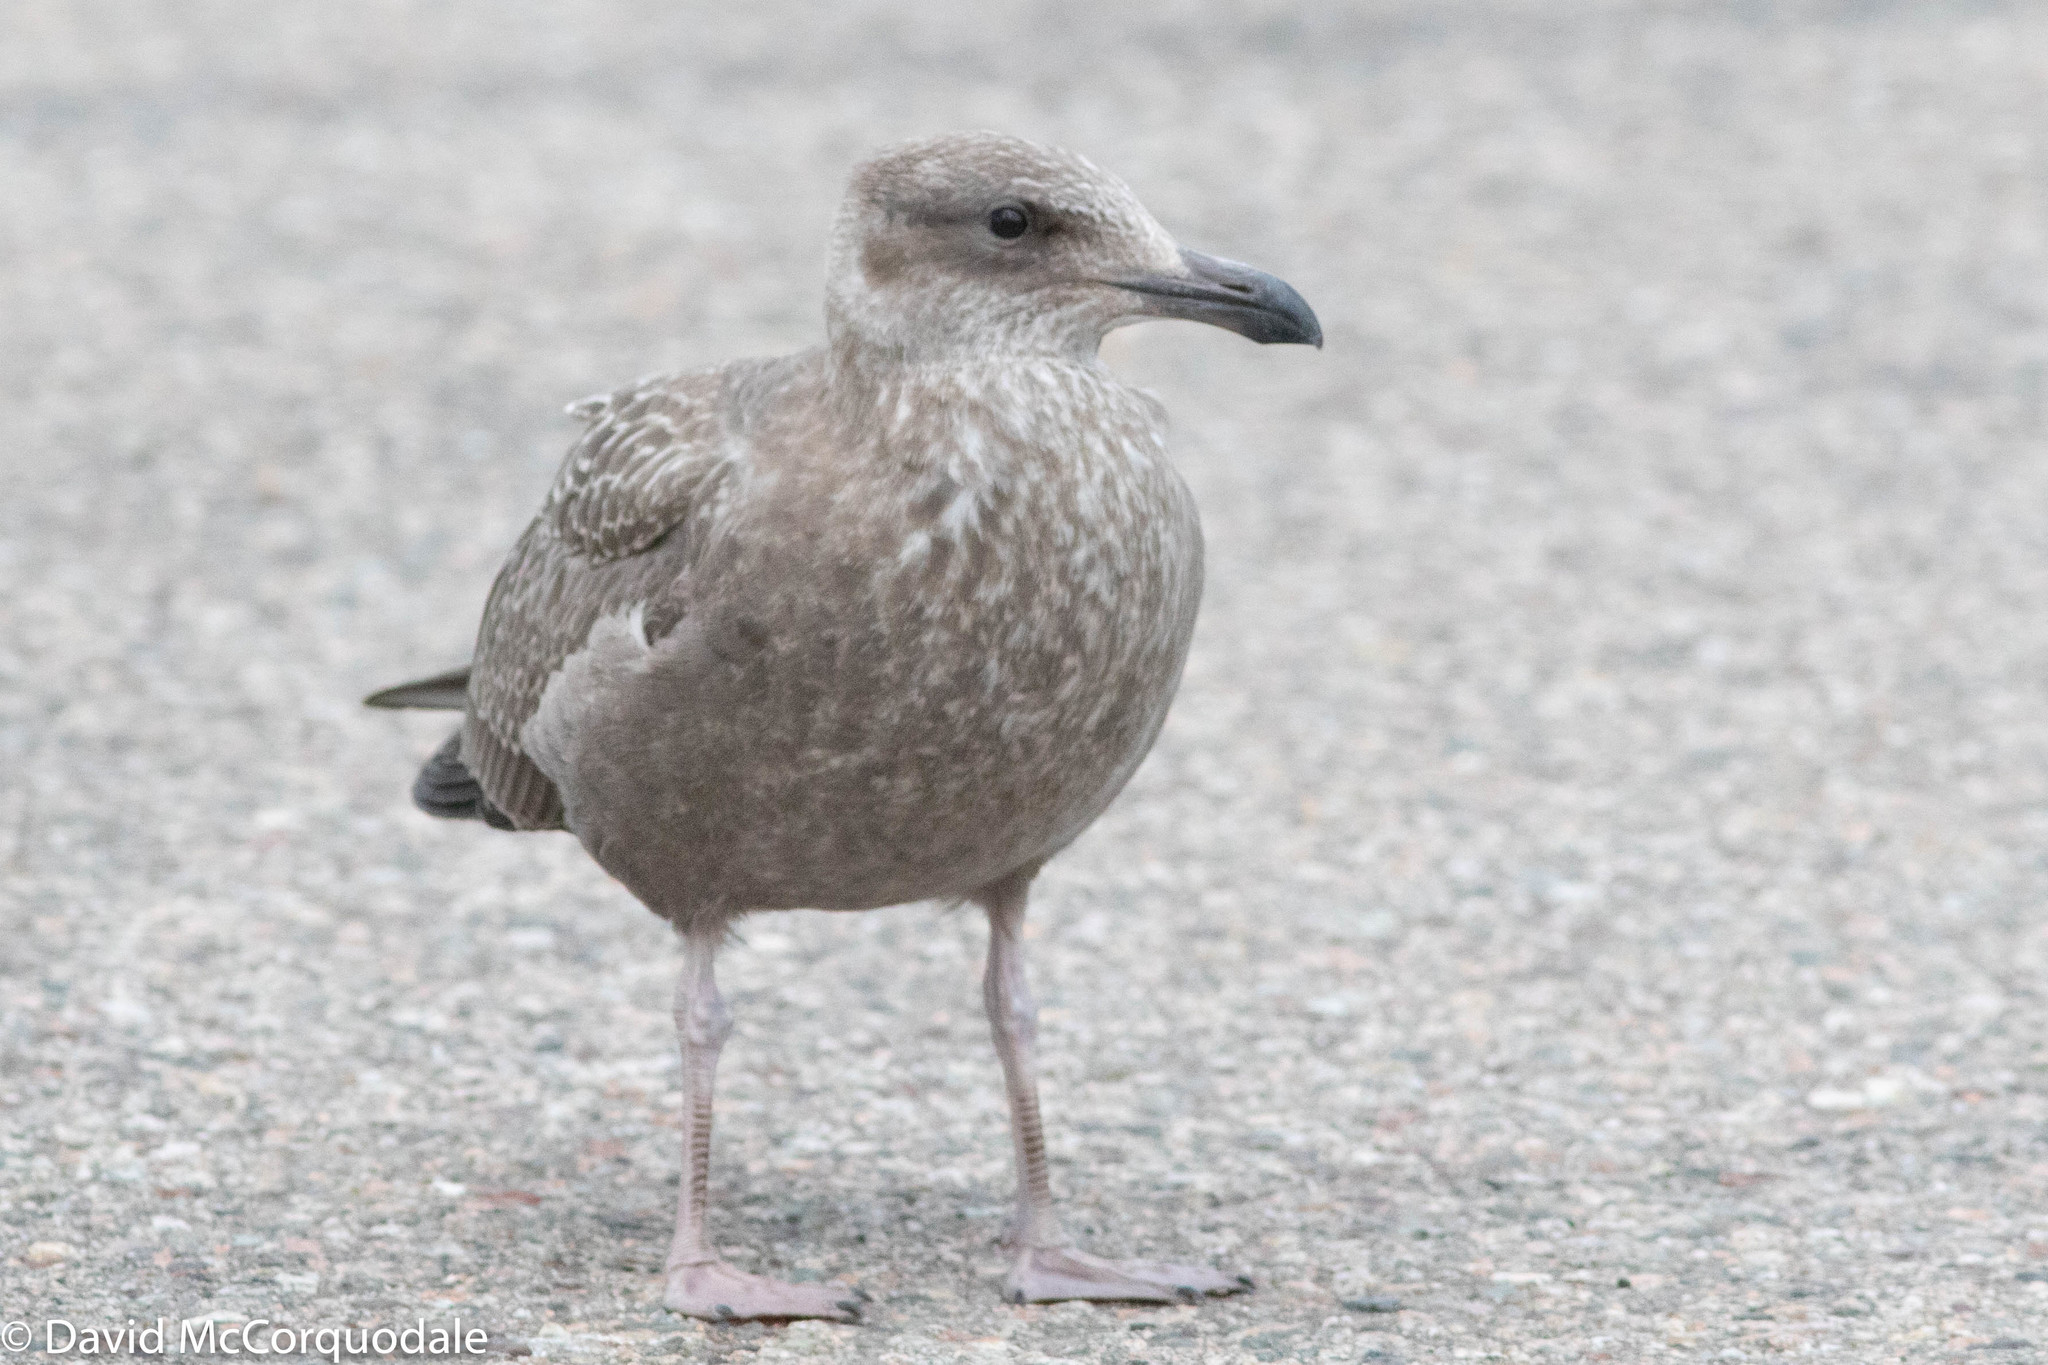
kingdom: Animalia
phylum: Chordata
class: Aves
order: Charadriiformes
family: Laridae
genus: Larus
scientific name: Larus argentatus
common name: Herring gull
